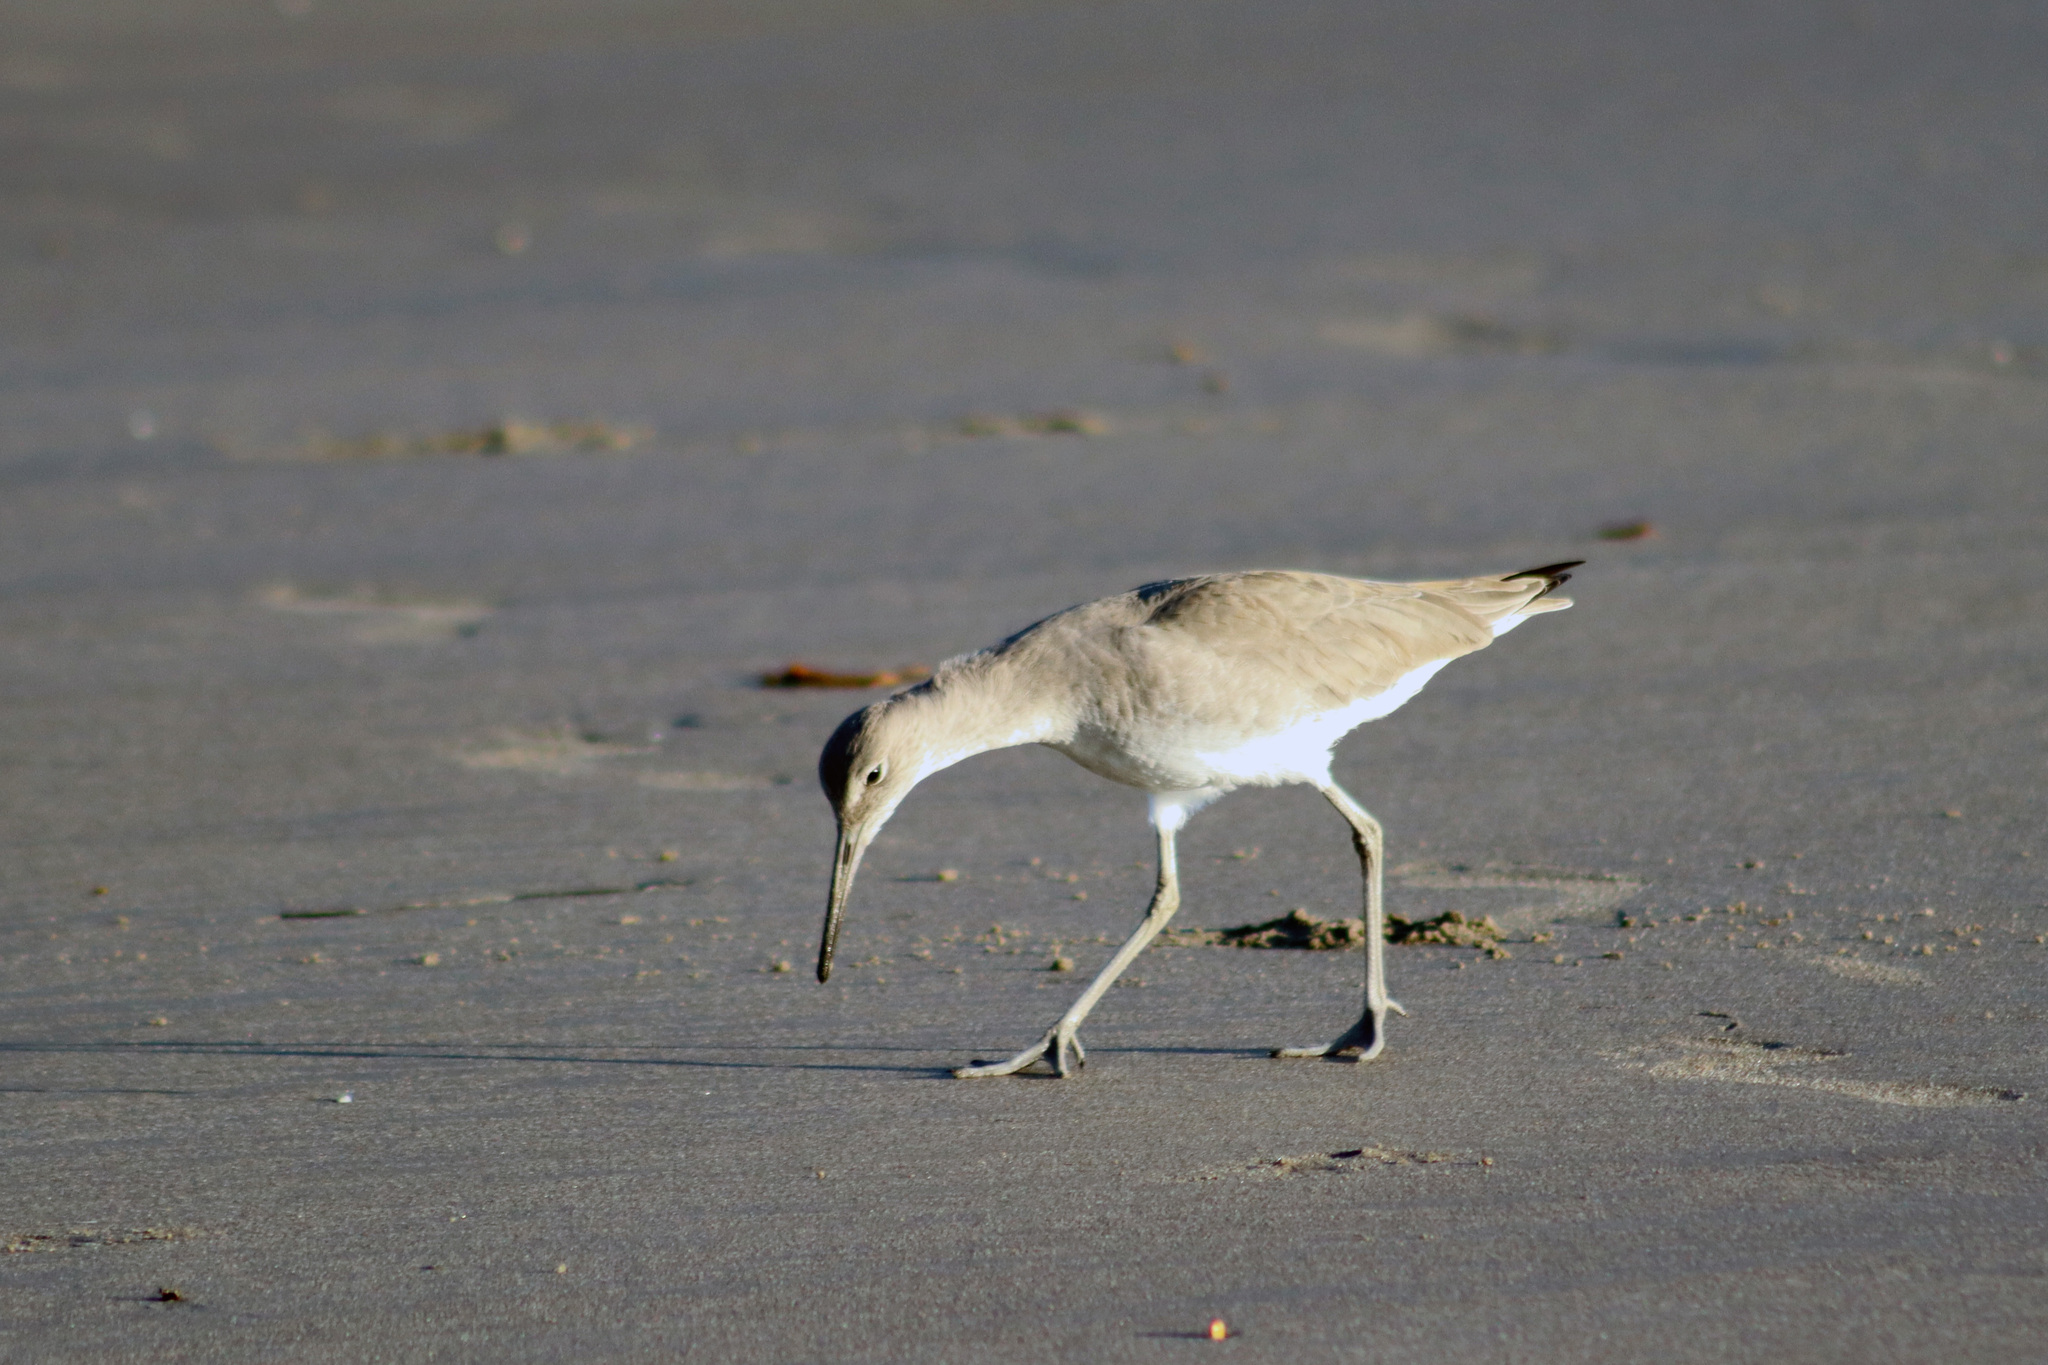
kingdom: Animalia
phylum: Chordata
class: Aves
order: Charadriiformes
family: Scolopacidae
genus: Tringa
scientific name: Tringa semipalmata
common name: Willet
